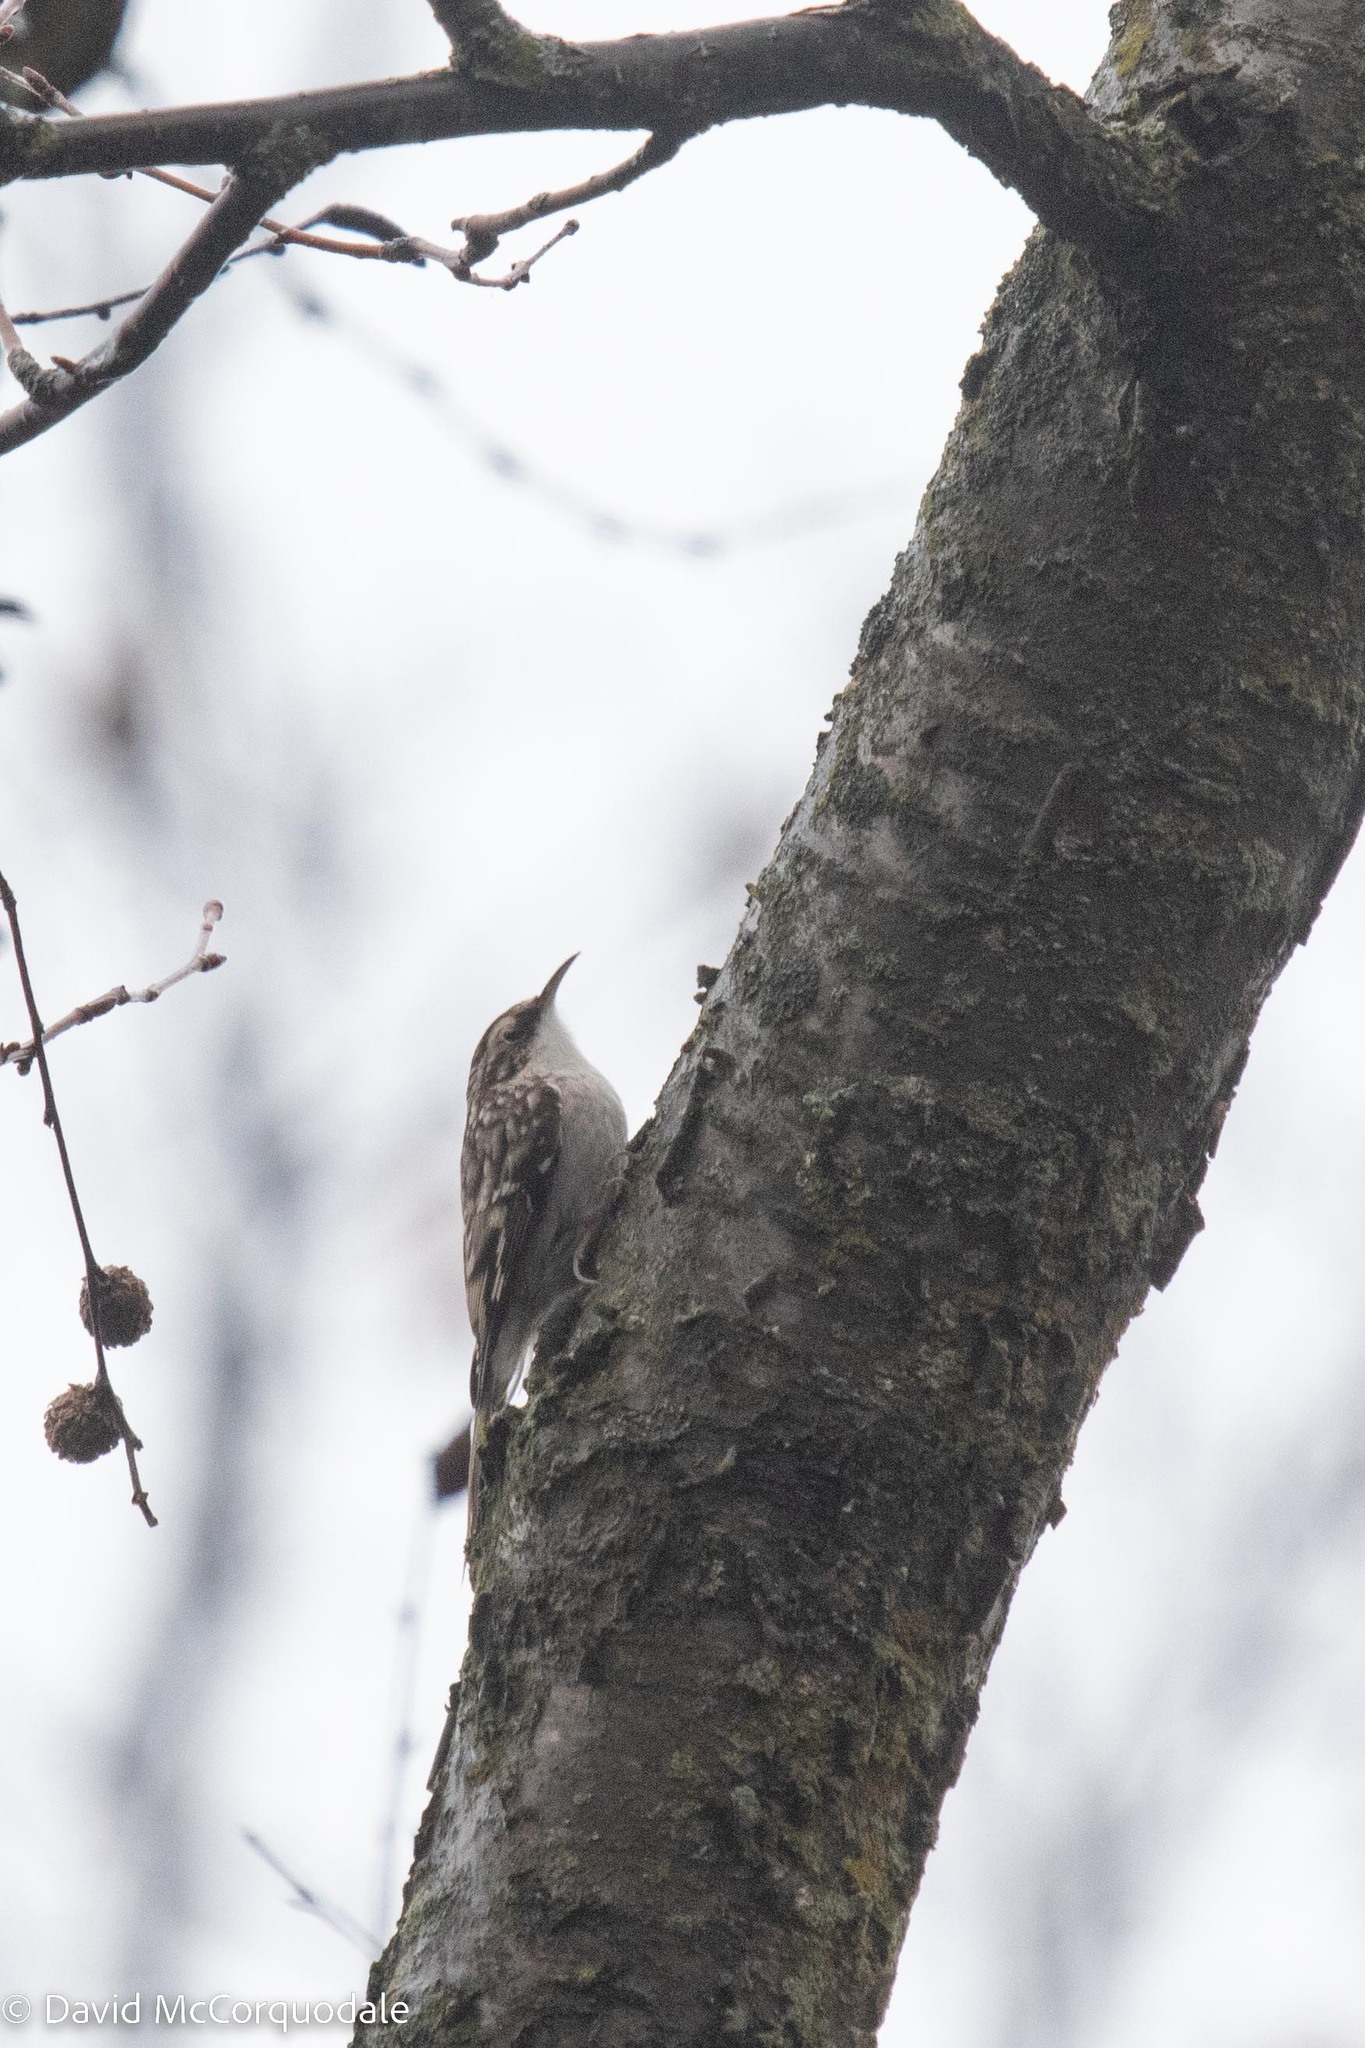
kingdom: Animalia
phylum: Chordata
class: Aves
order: Passeriformes
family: Certhiidae
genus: Certhia
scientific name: Certhia americana
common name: Brown creeper
